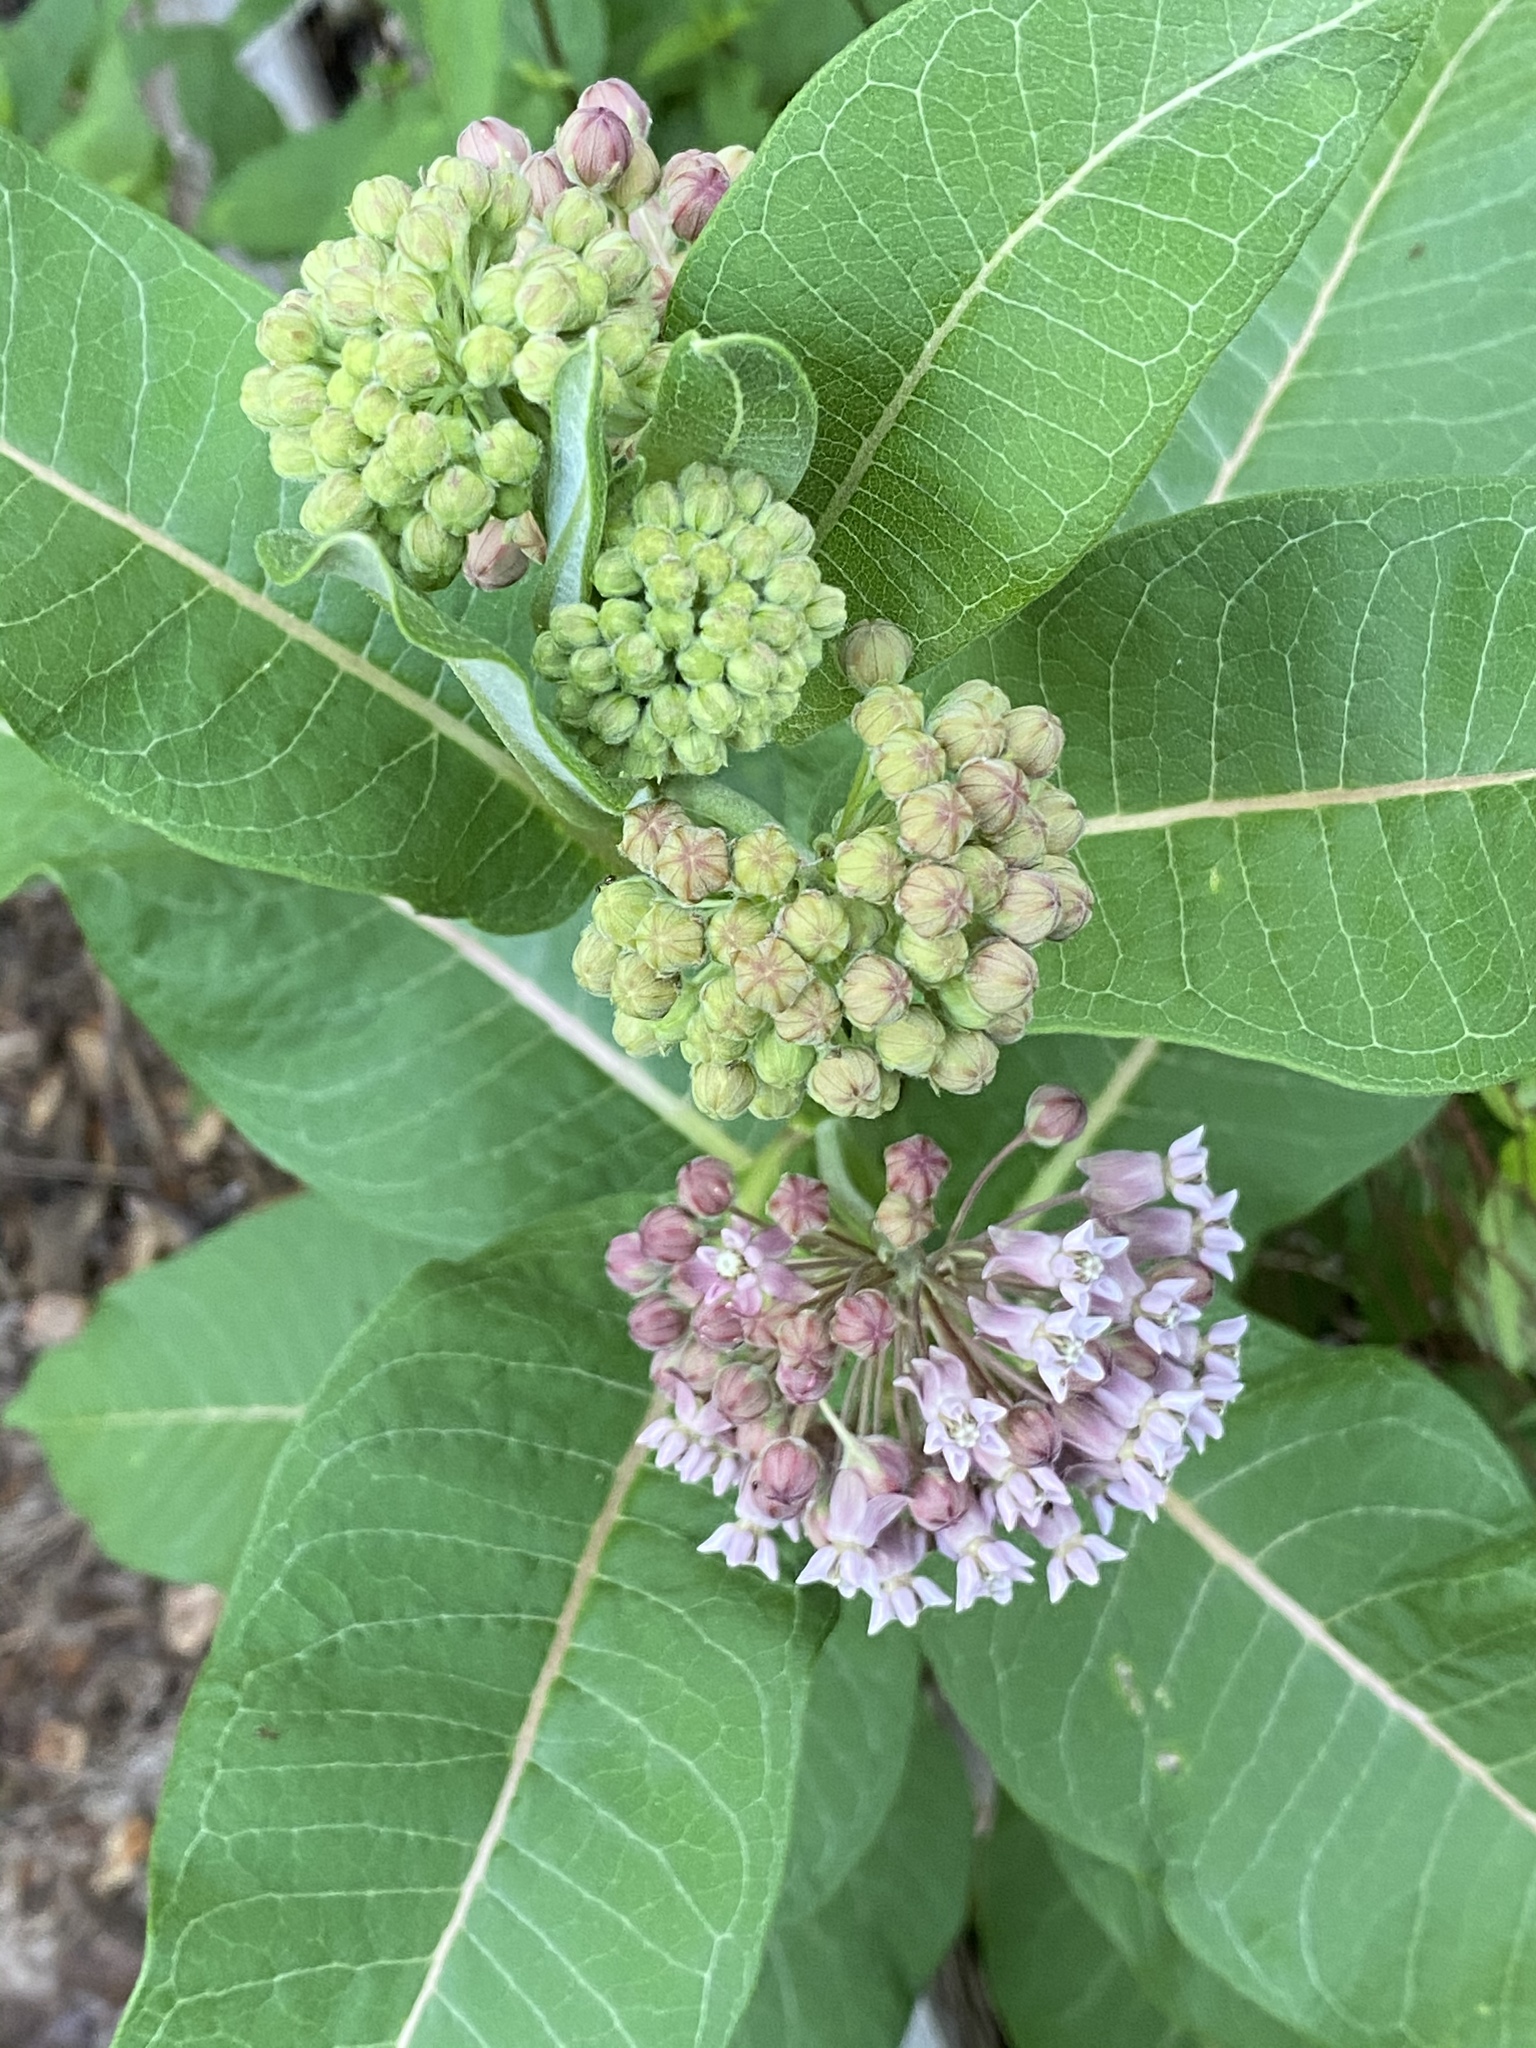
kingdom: Plantae
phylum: Tracheophyta
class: Magnoliopsida
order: Gentianales
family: Apocynaceae
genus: Asclepias
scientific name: Asclepias syriaca
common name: Common milkweed
